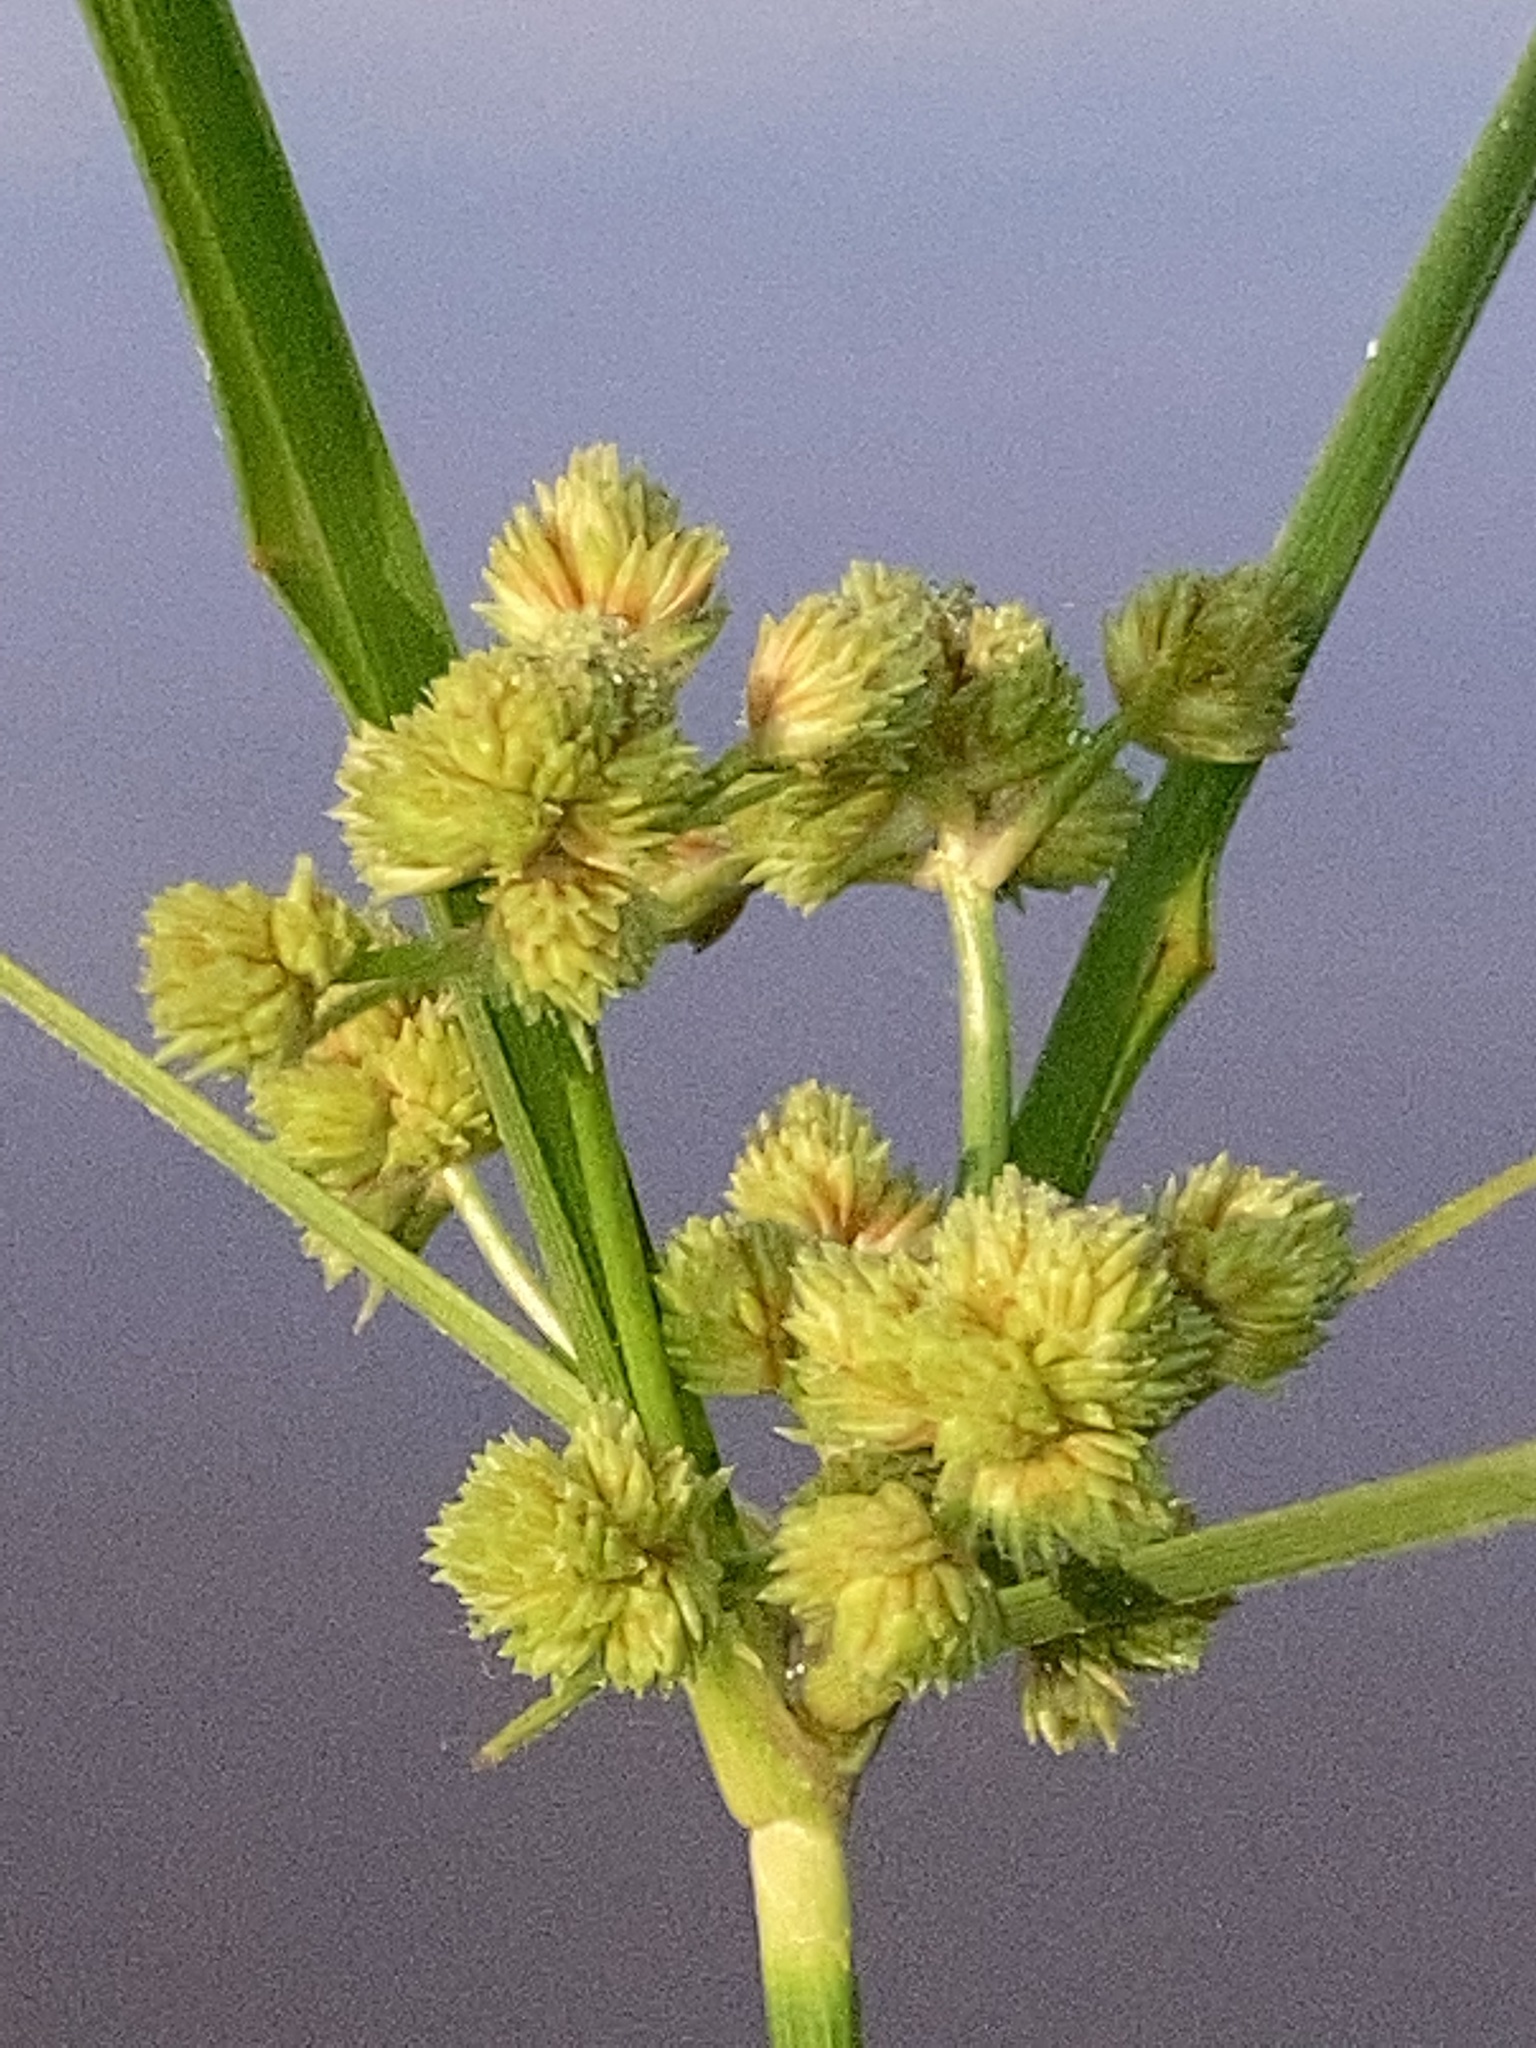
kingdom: Plantae
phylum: Tracheophyta
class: Liliopsida
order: Poales
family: Cyperaceae
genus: Cyperus
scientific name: Cyperus pseudovegetus
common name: Marsh flat sedge
